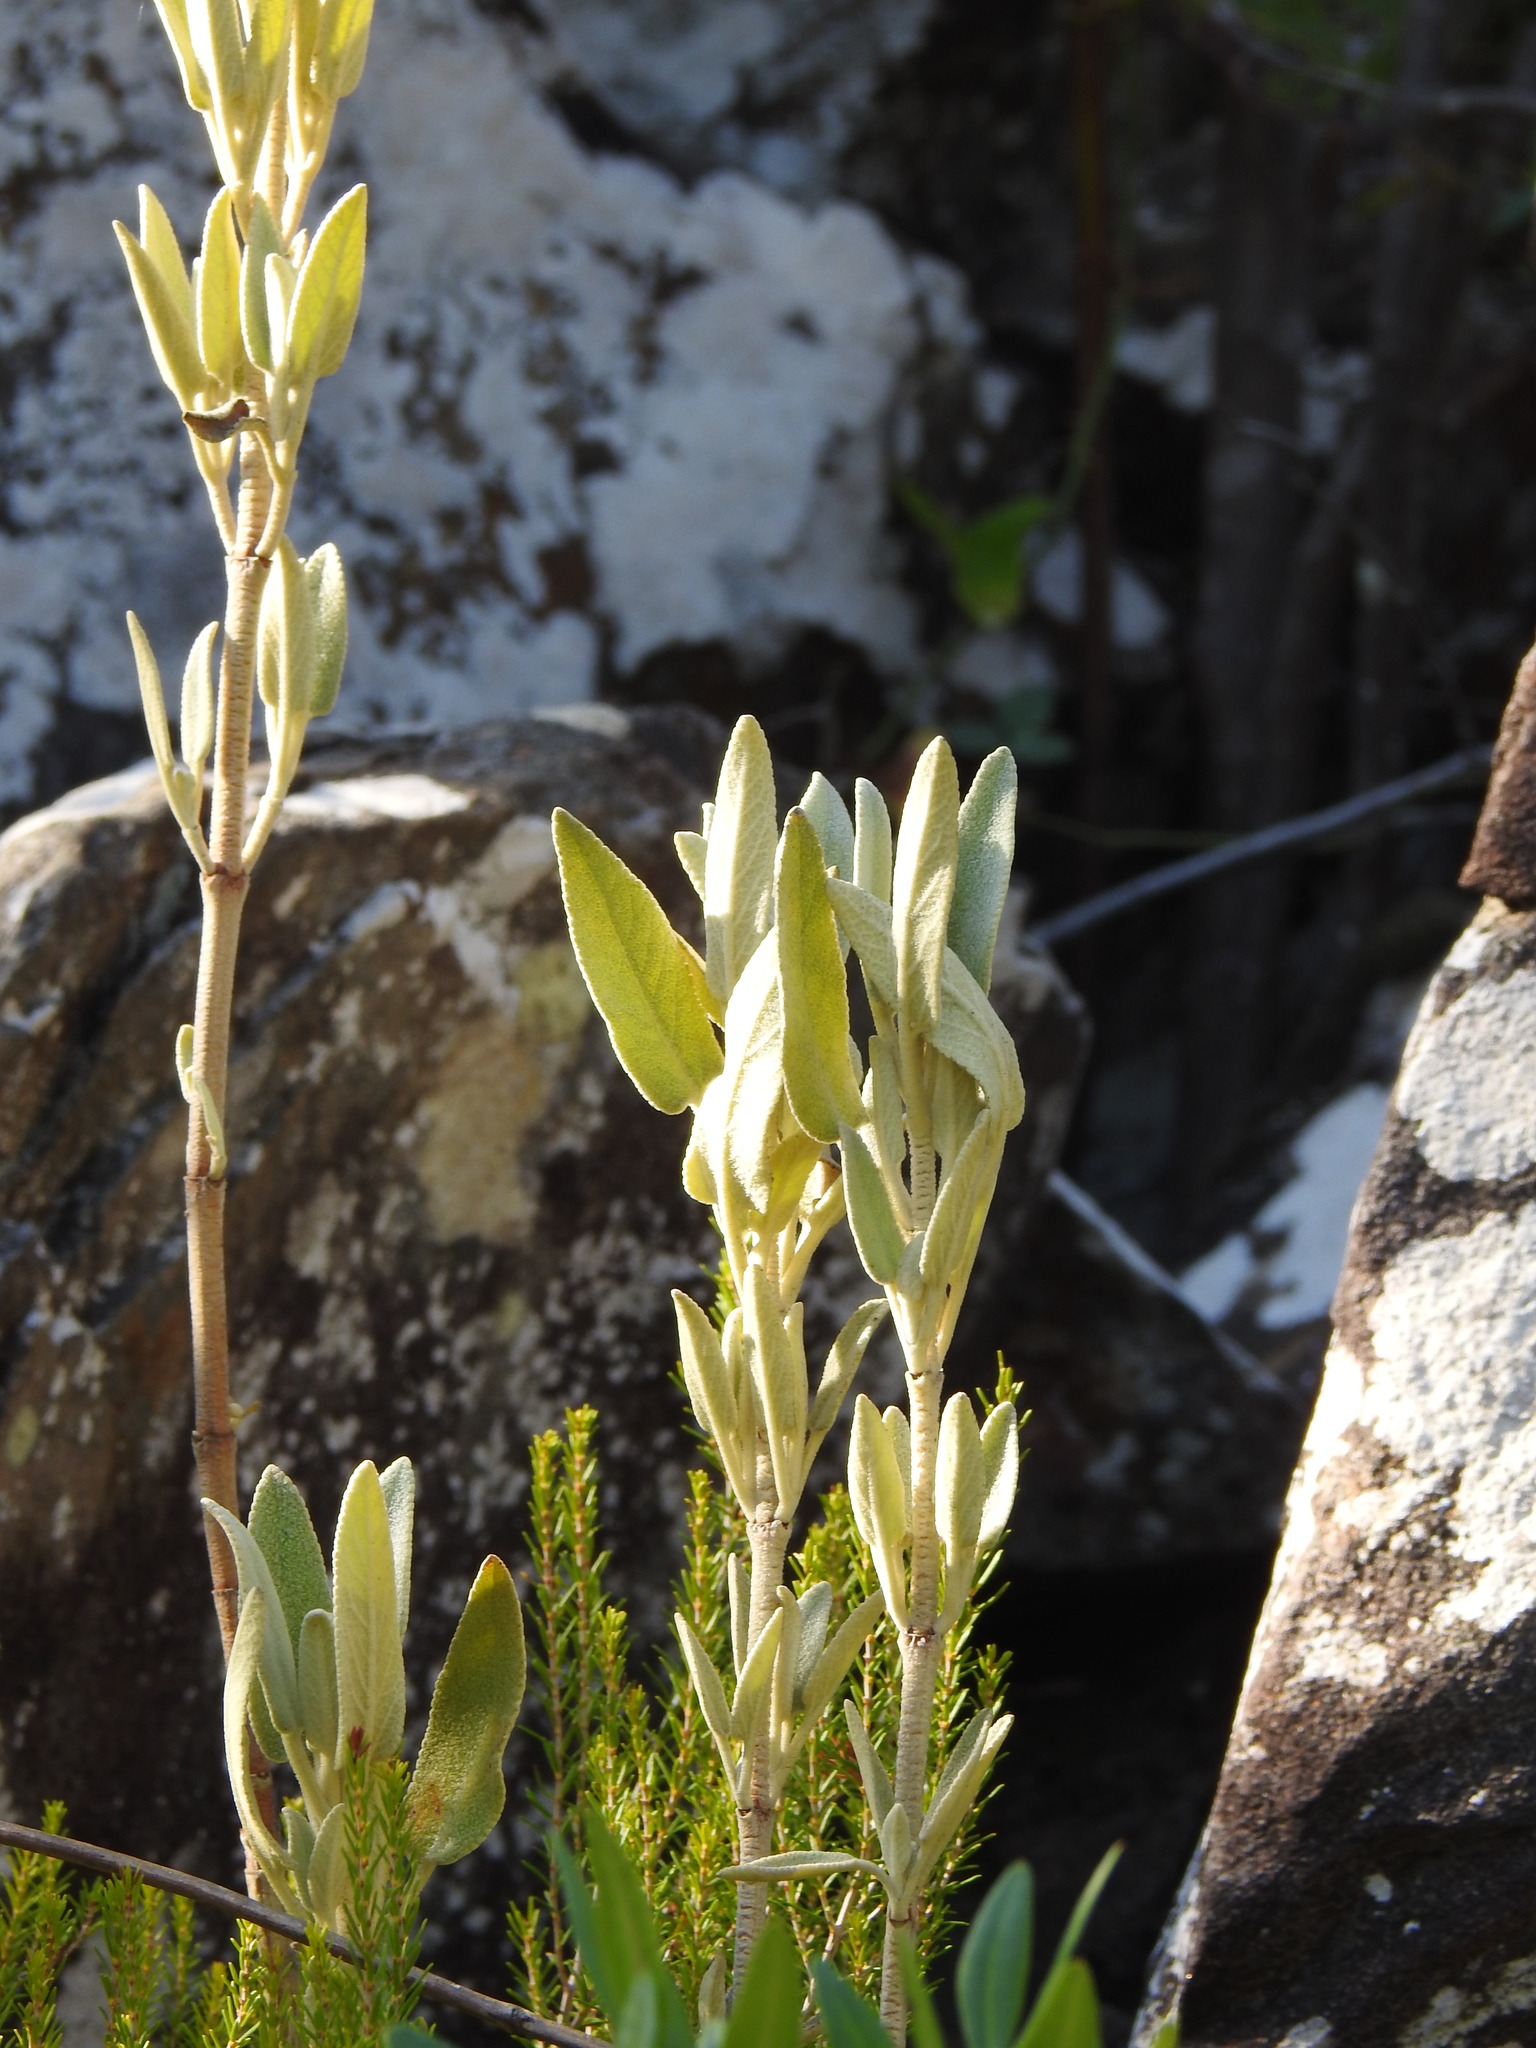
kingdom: Plantae
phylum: Tracheophyta
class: Magnoliopsida
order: Lamiales
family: Lamiaceae
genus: Phlomis
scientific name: Phlomis purpurea
